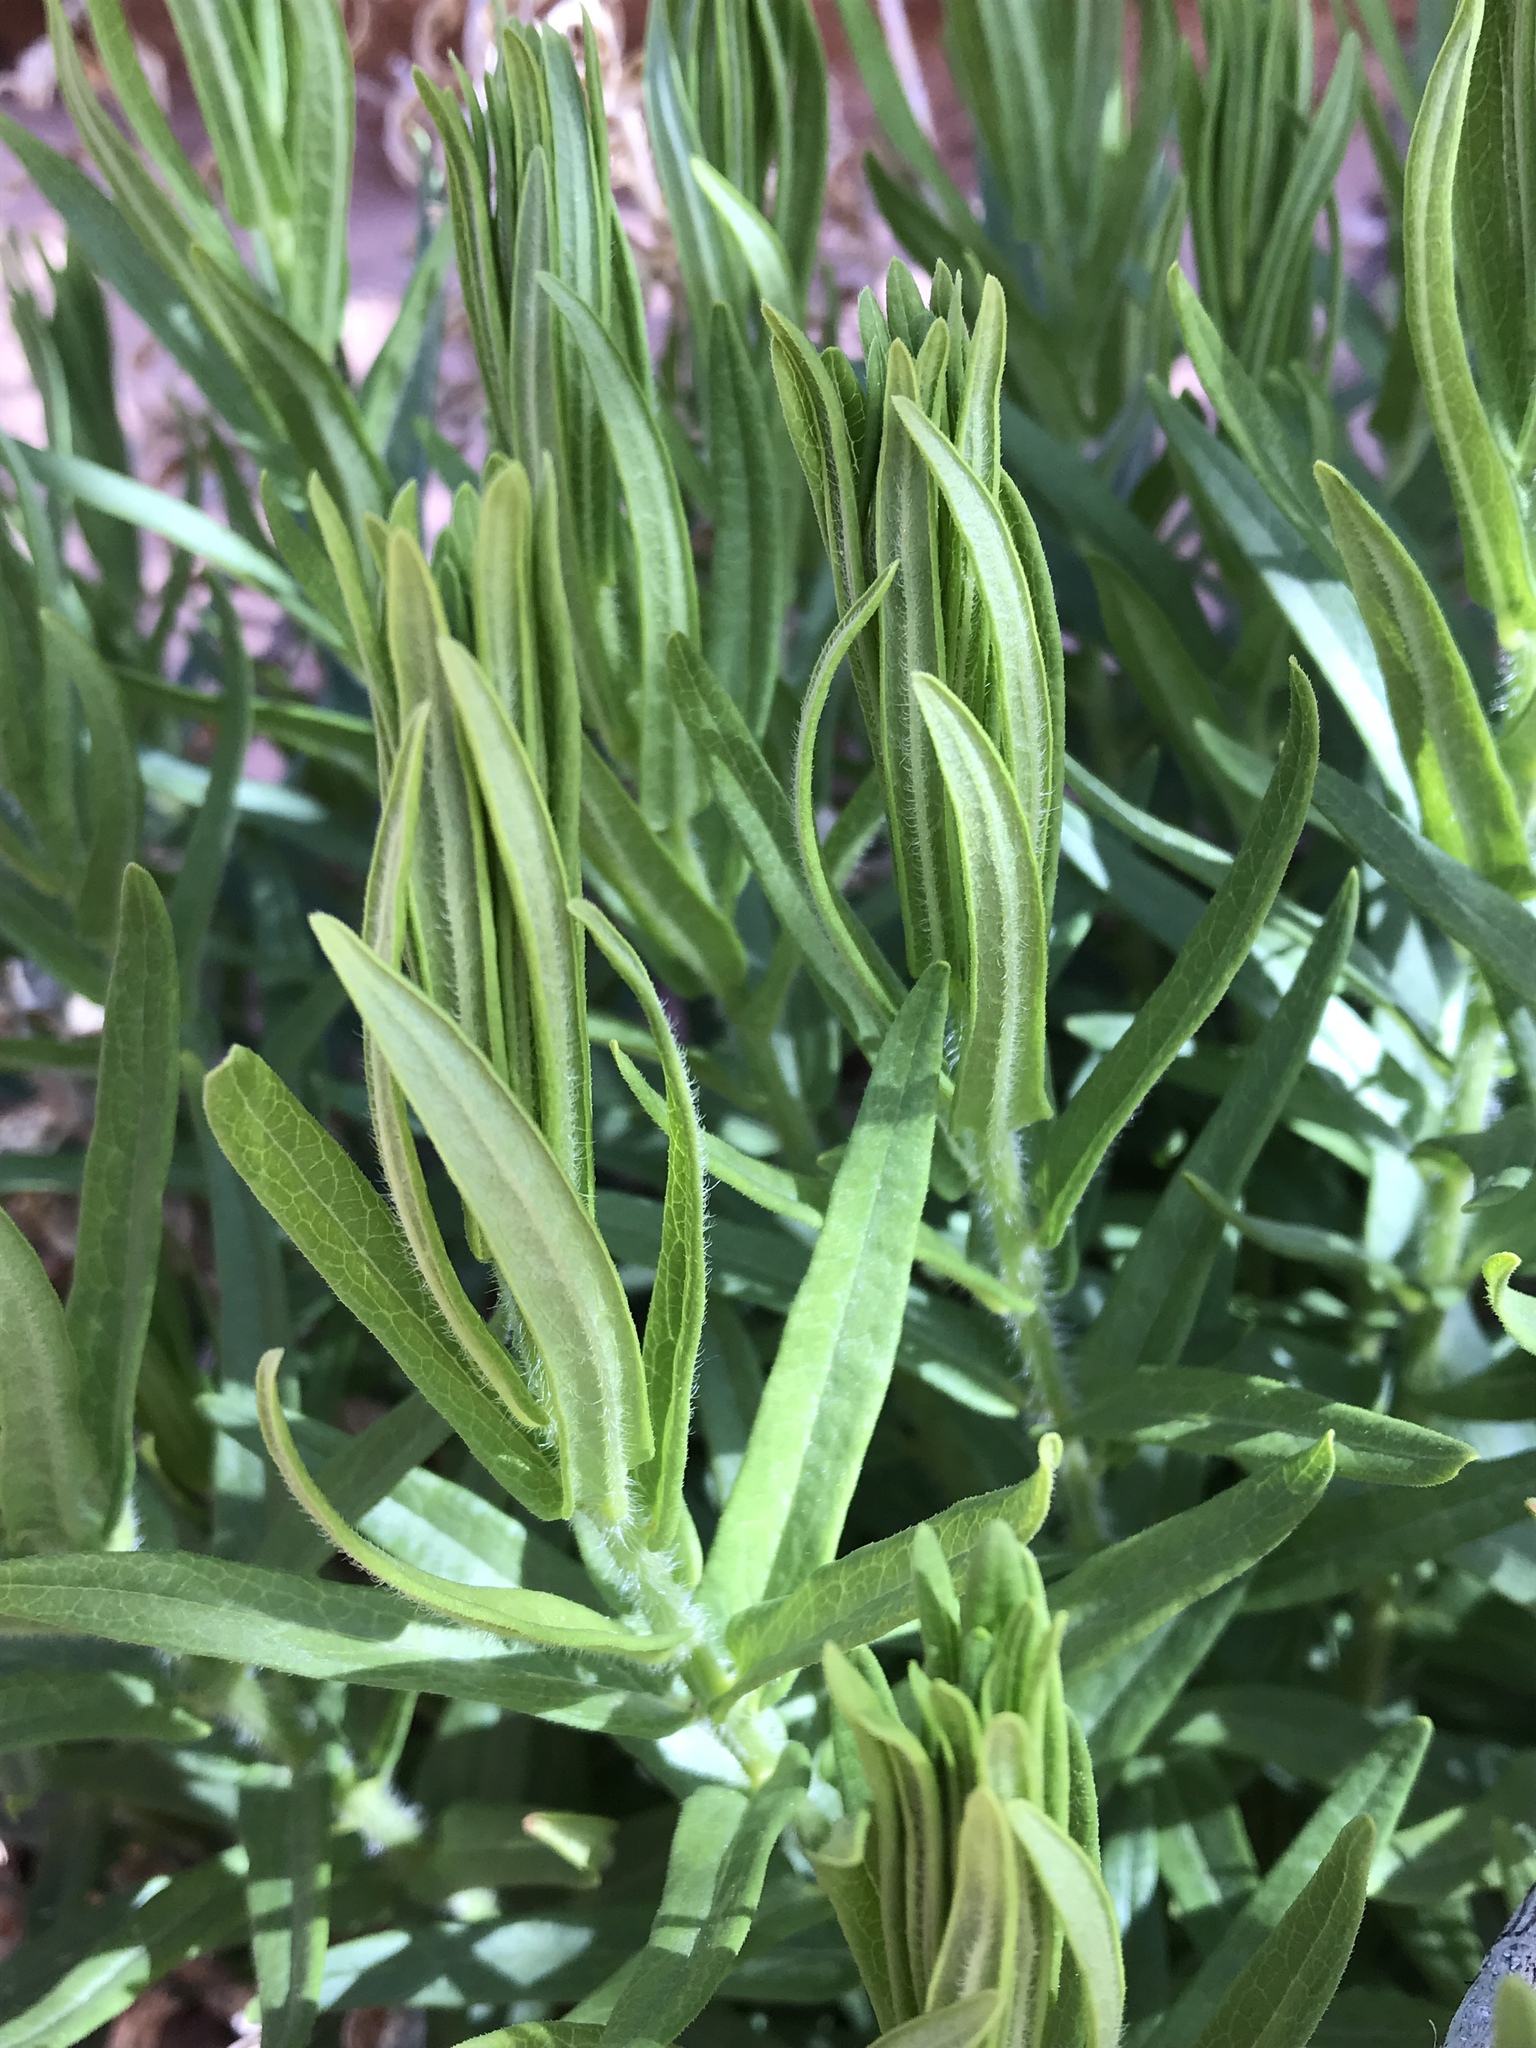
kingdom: Plantae
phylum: Tracheophyta
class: Magnoliopsida
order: Gentianales
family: Apocynaceae
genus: Asclepias
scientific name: Asclepias tuberosa
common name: Butterfly milkweed
